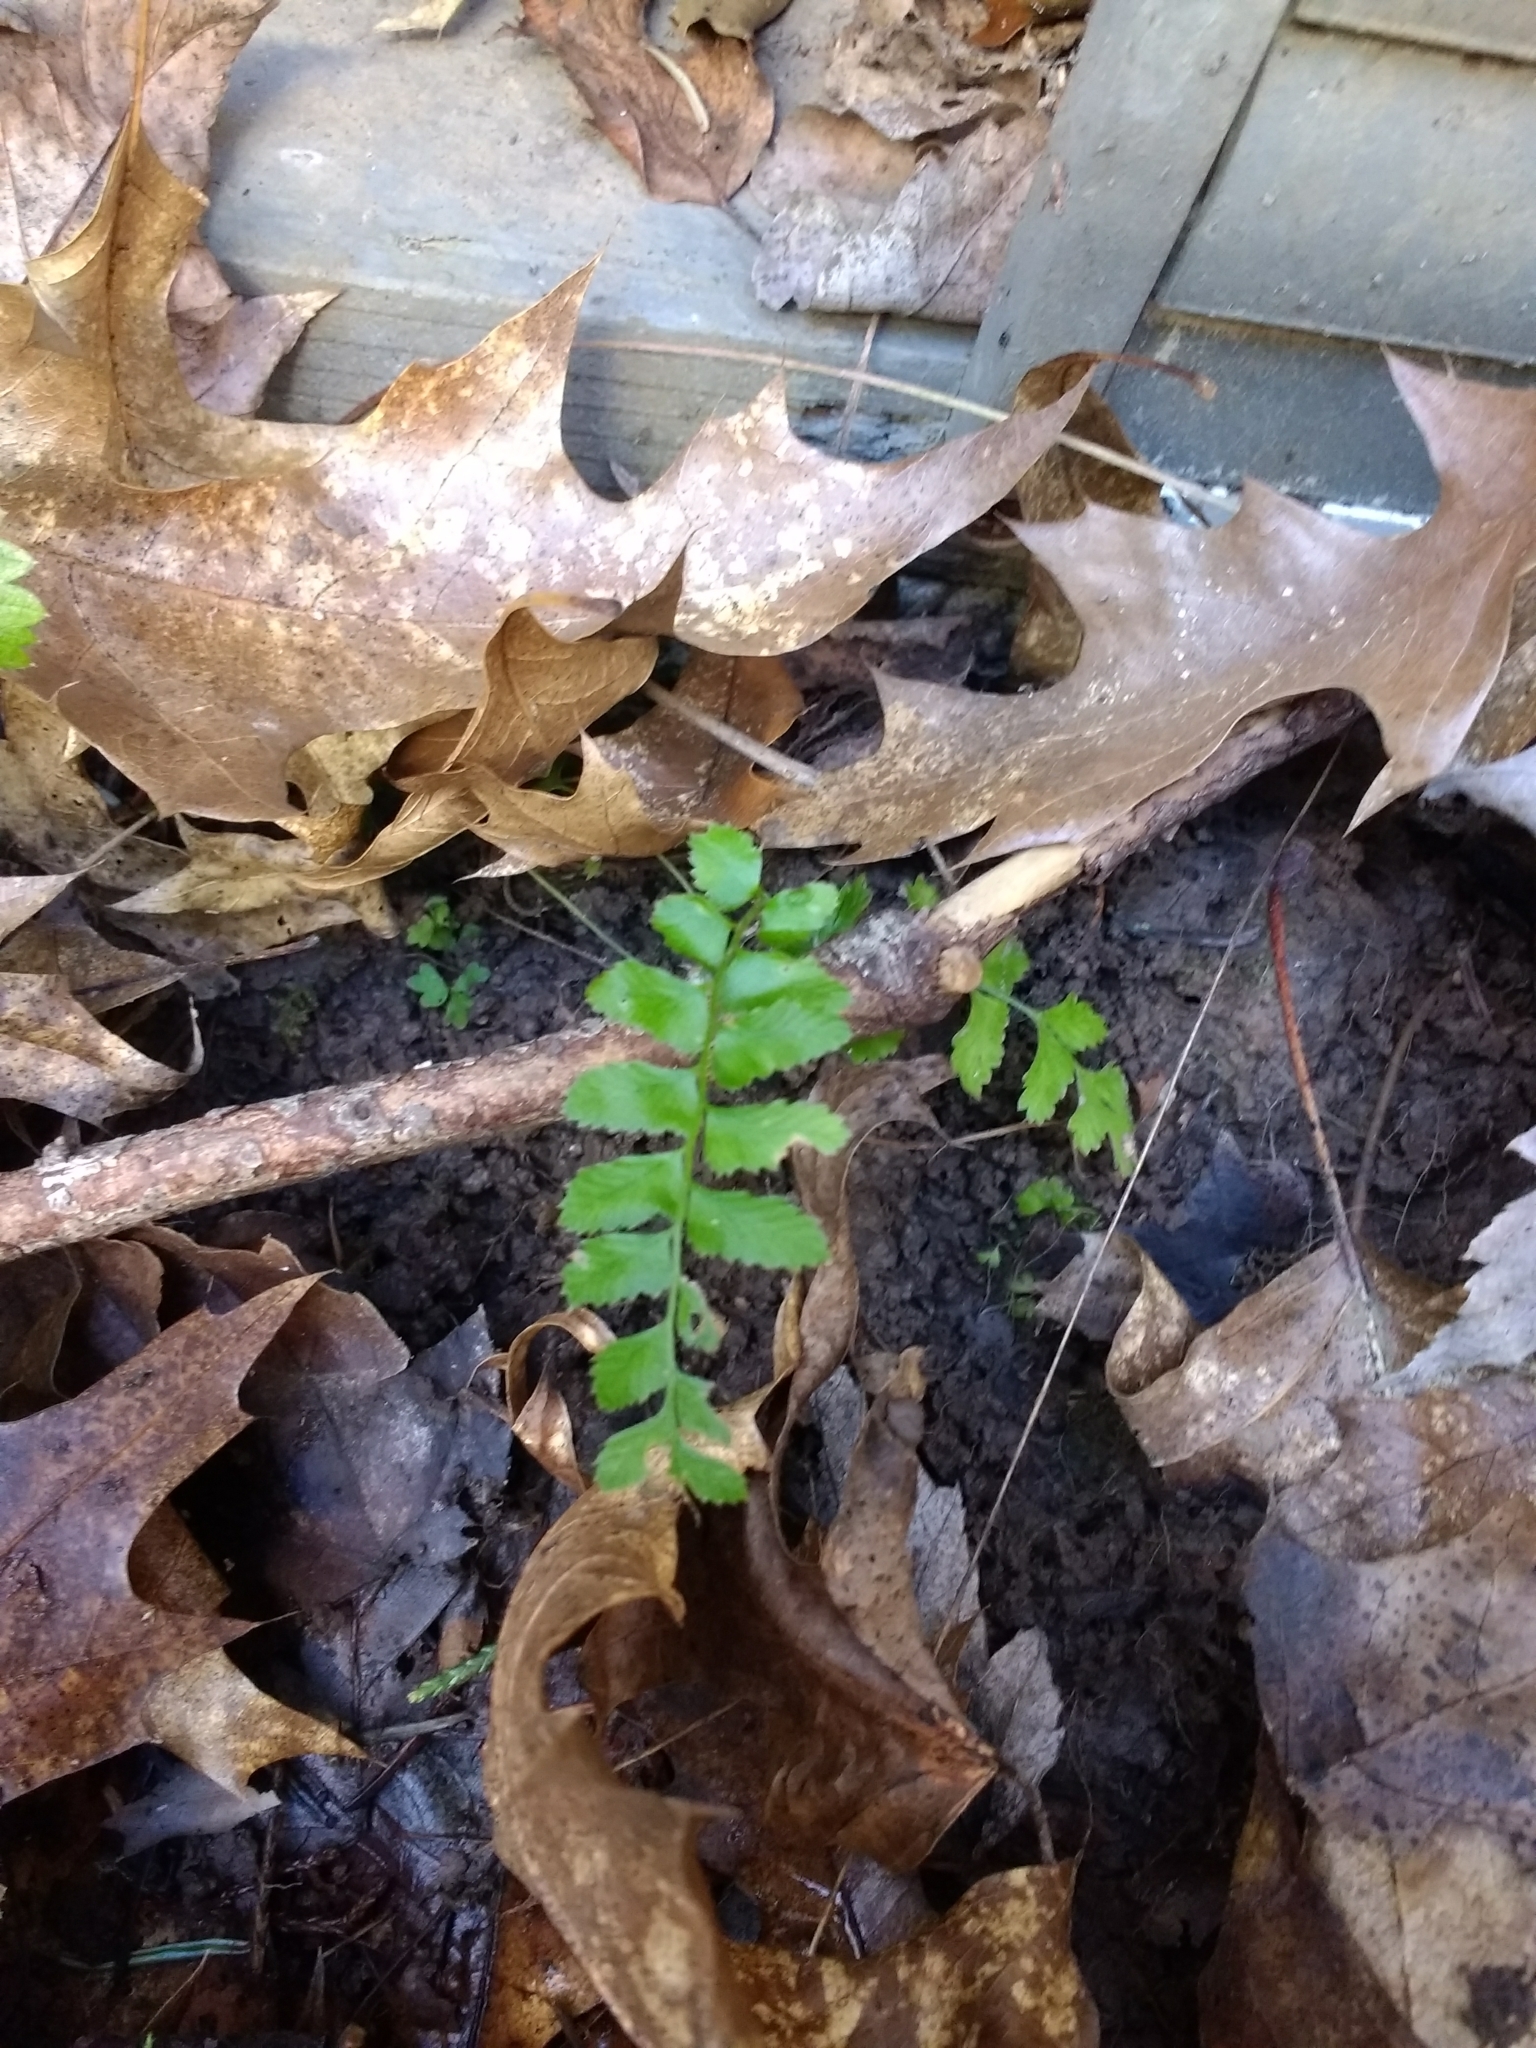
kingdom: Plantae
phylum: Tracheophyta
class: Polypodiopsida
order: Polypodiales
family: Dryopteridaceae
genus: Polystichum
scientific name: Polystichum munitum
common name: Western sword-fern
